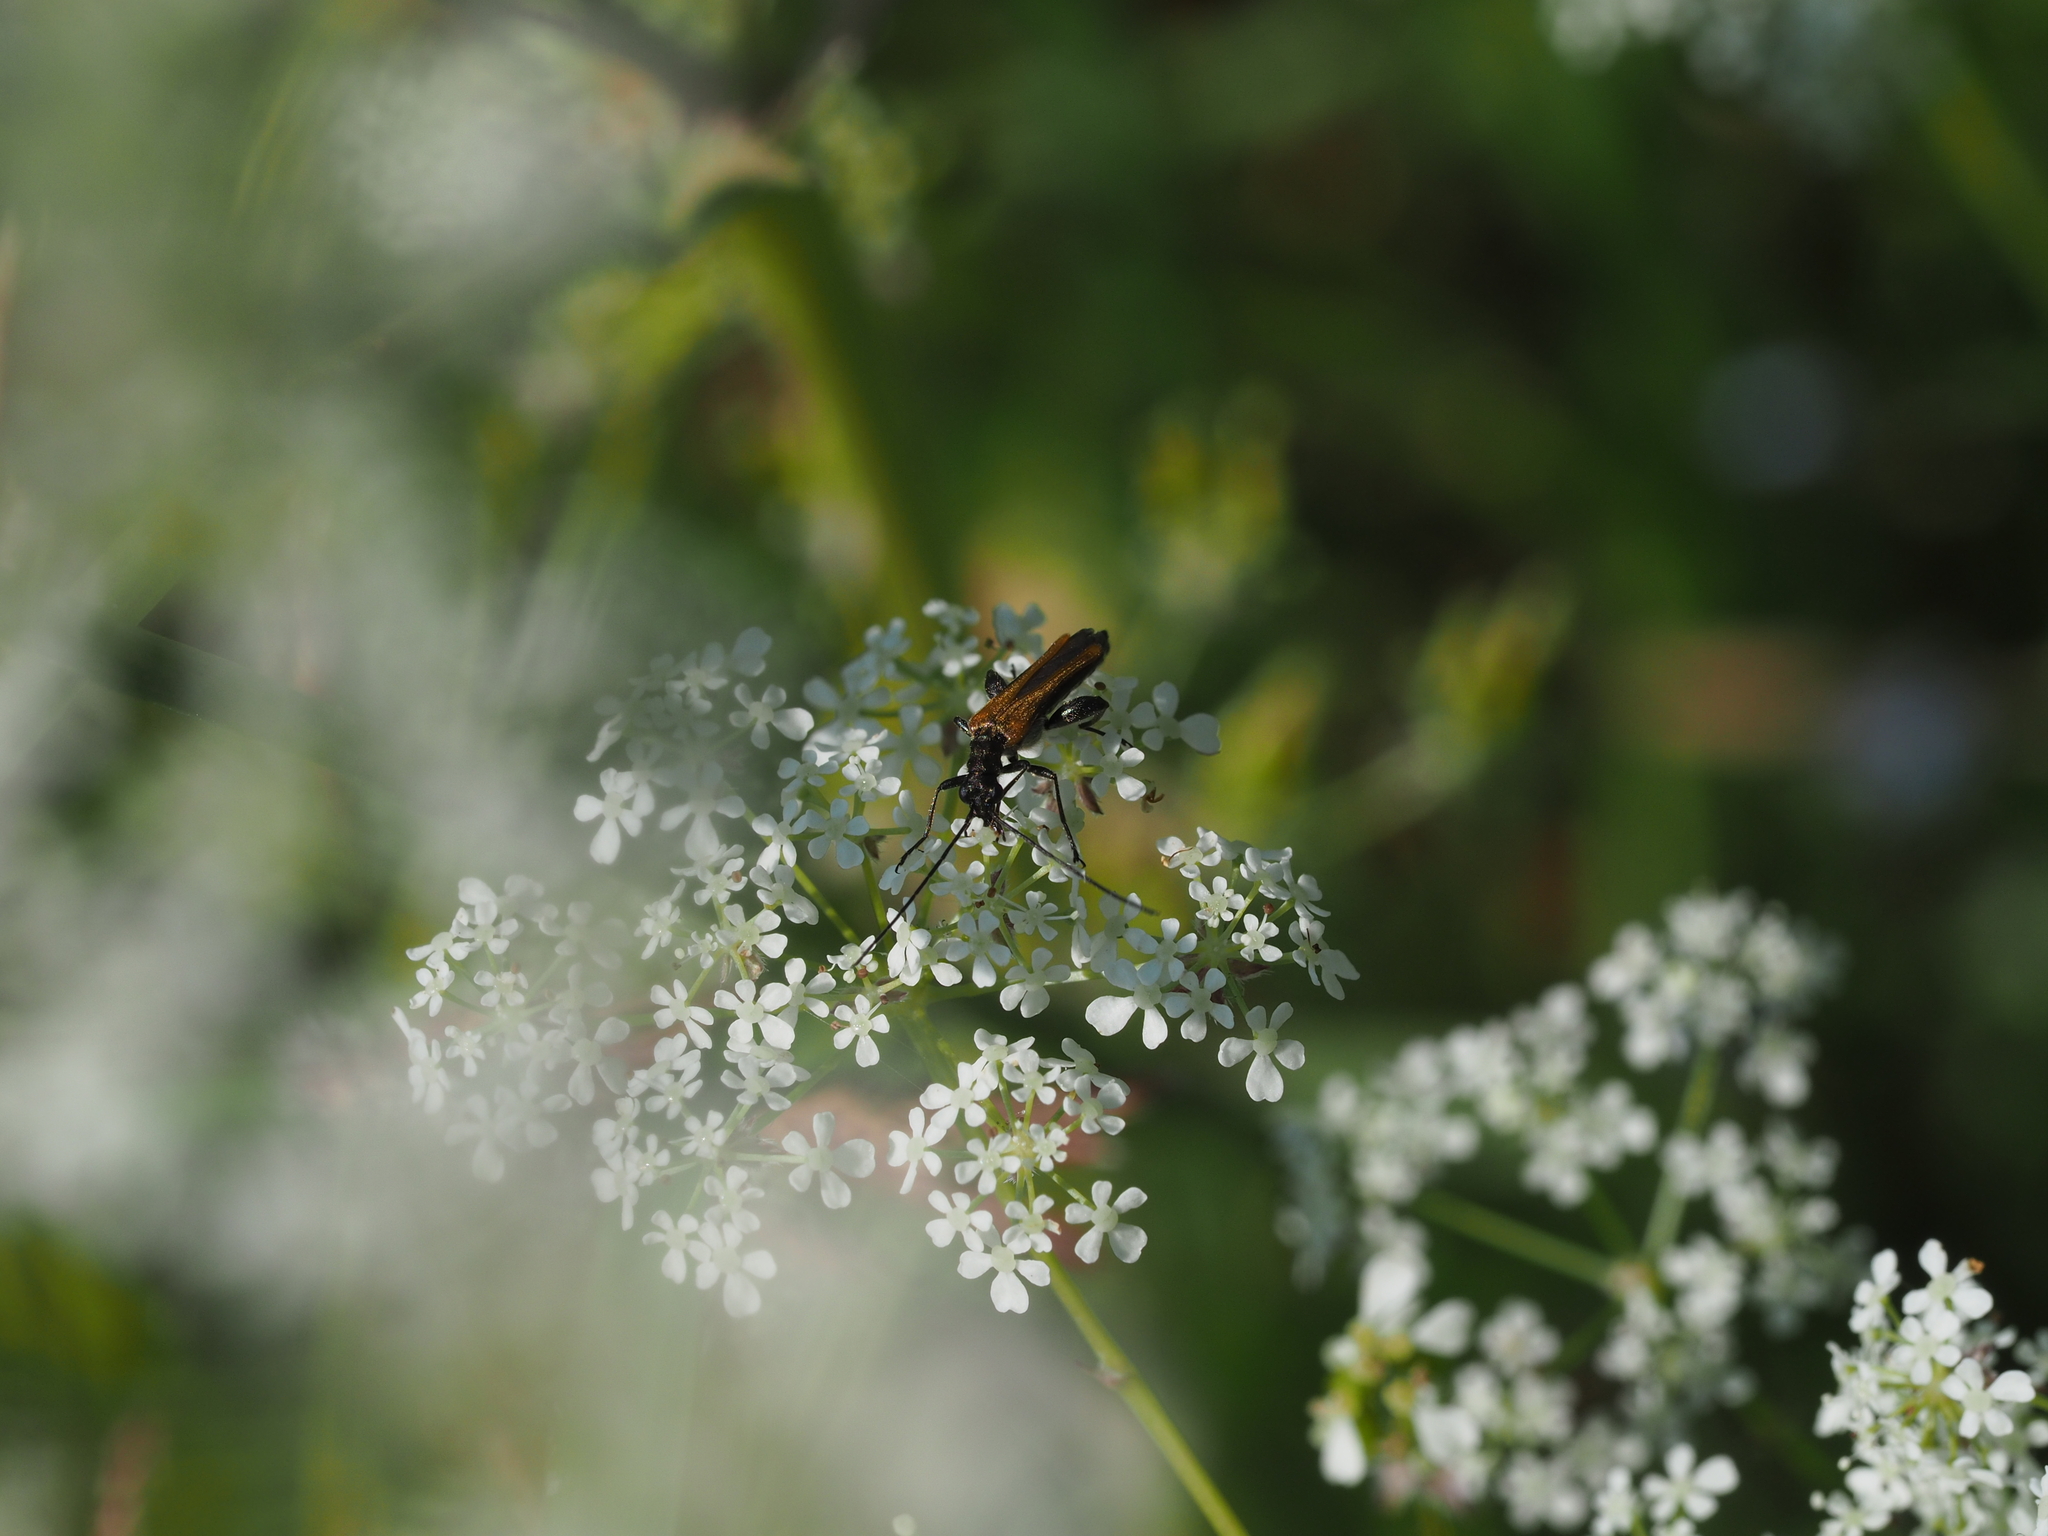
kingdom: Animalia
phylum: Arthropoda
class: Insecta
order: Coleoptera
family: Oedemeridae
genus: Oedemera
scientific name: Oedemera femorata
